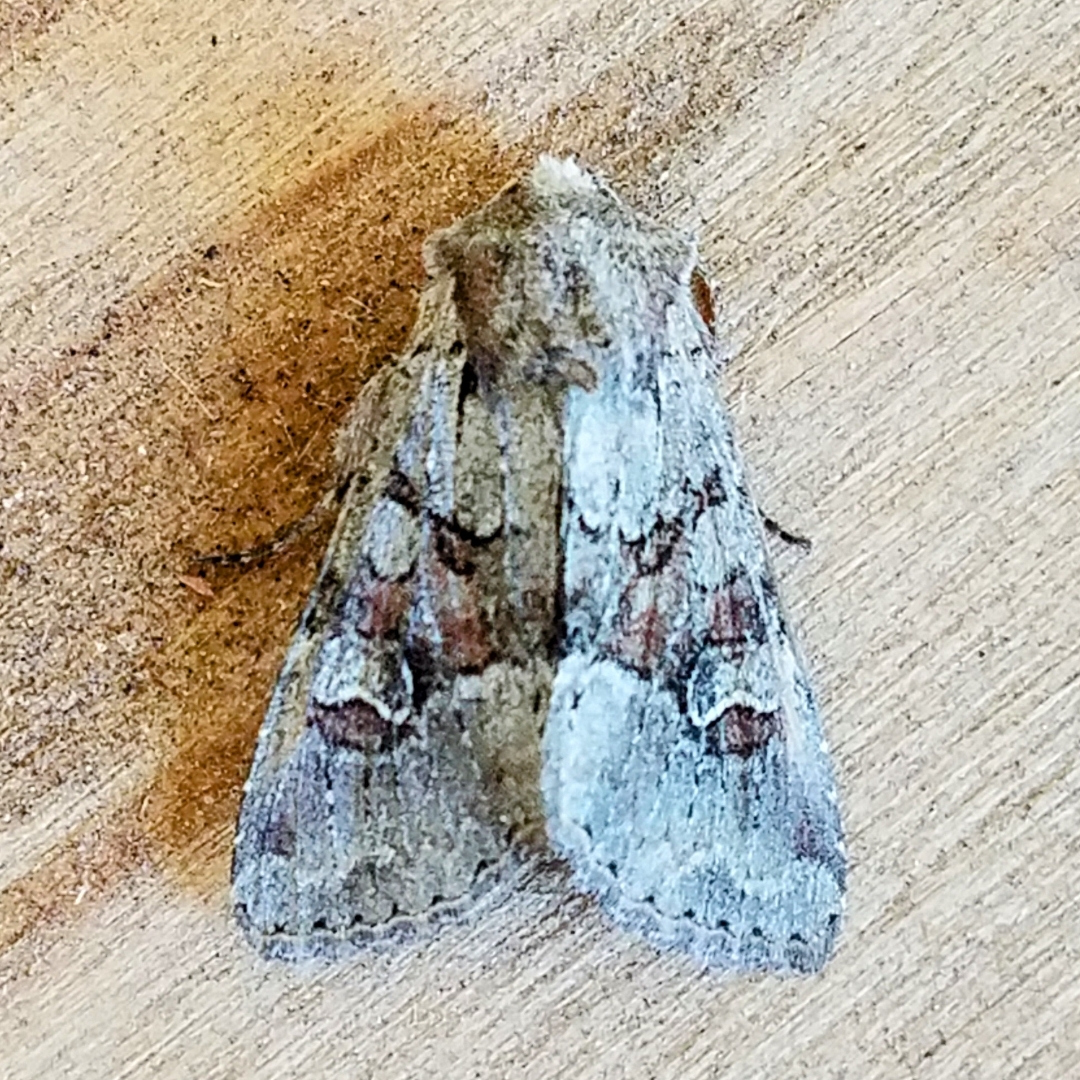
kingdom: Animalia
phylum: Arthropoda
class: Insecta
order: Lepidoptera
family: Noctuidae
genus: Apamea
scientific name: Apamea sordens
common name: Rustic shoulder-knot
